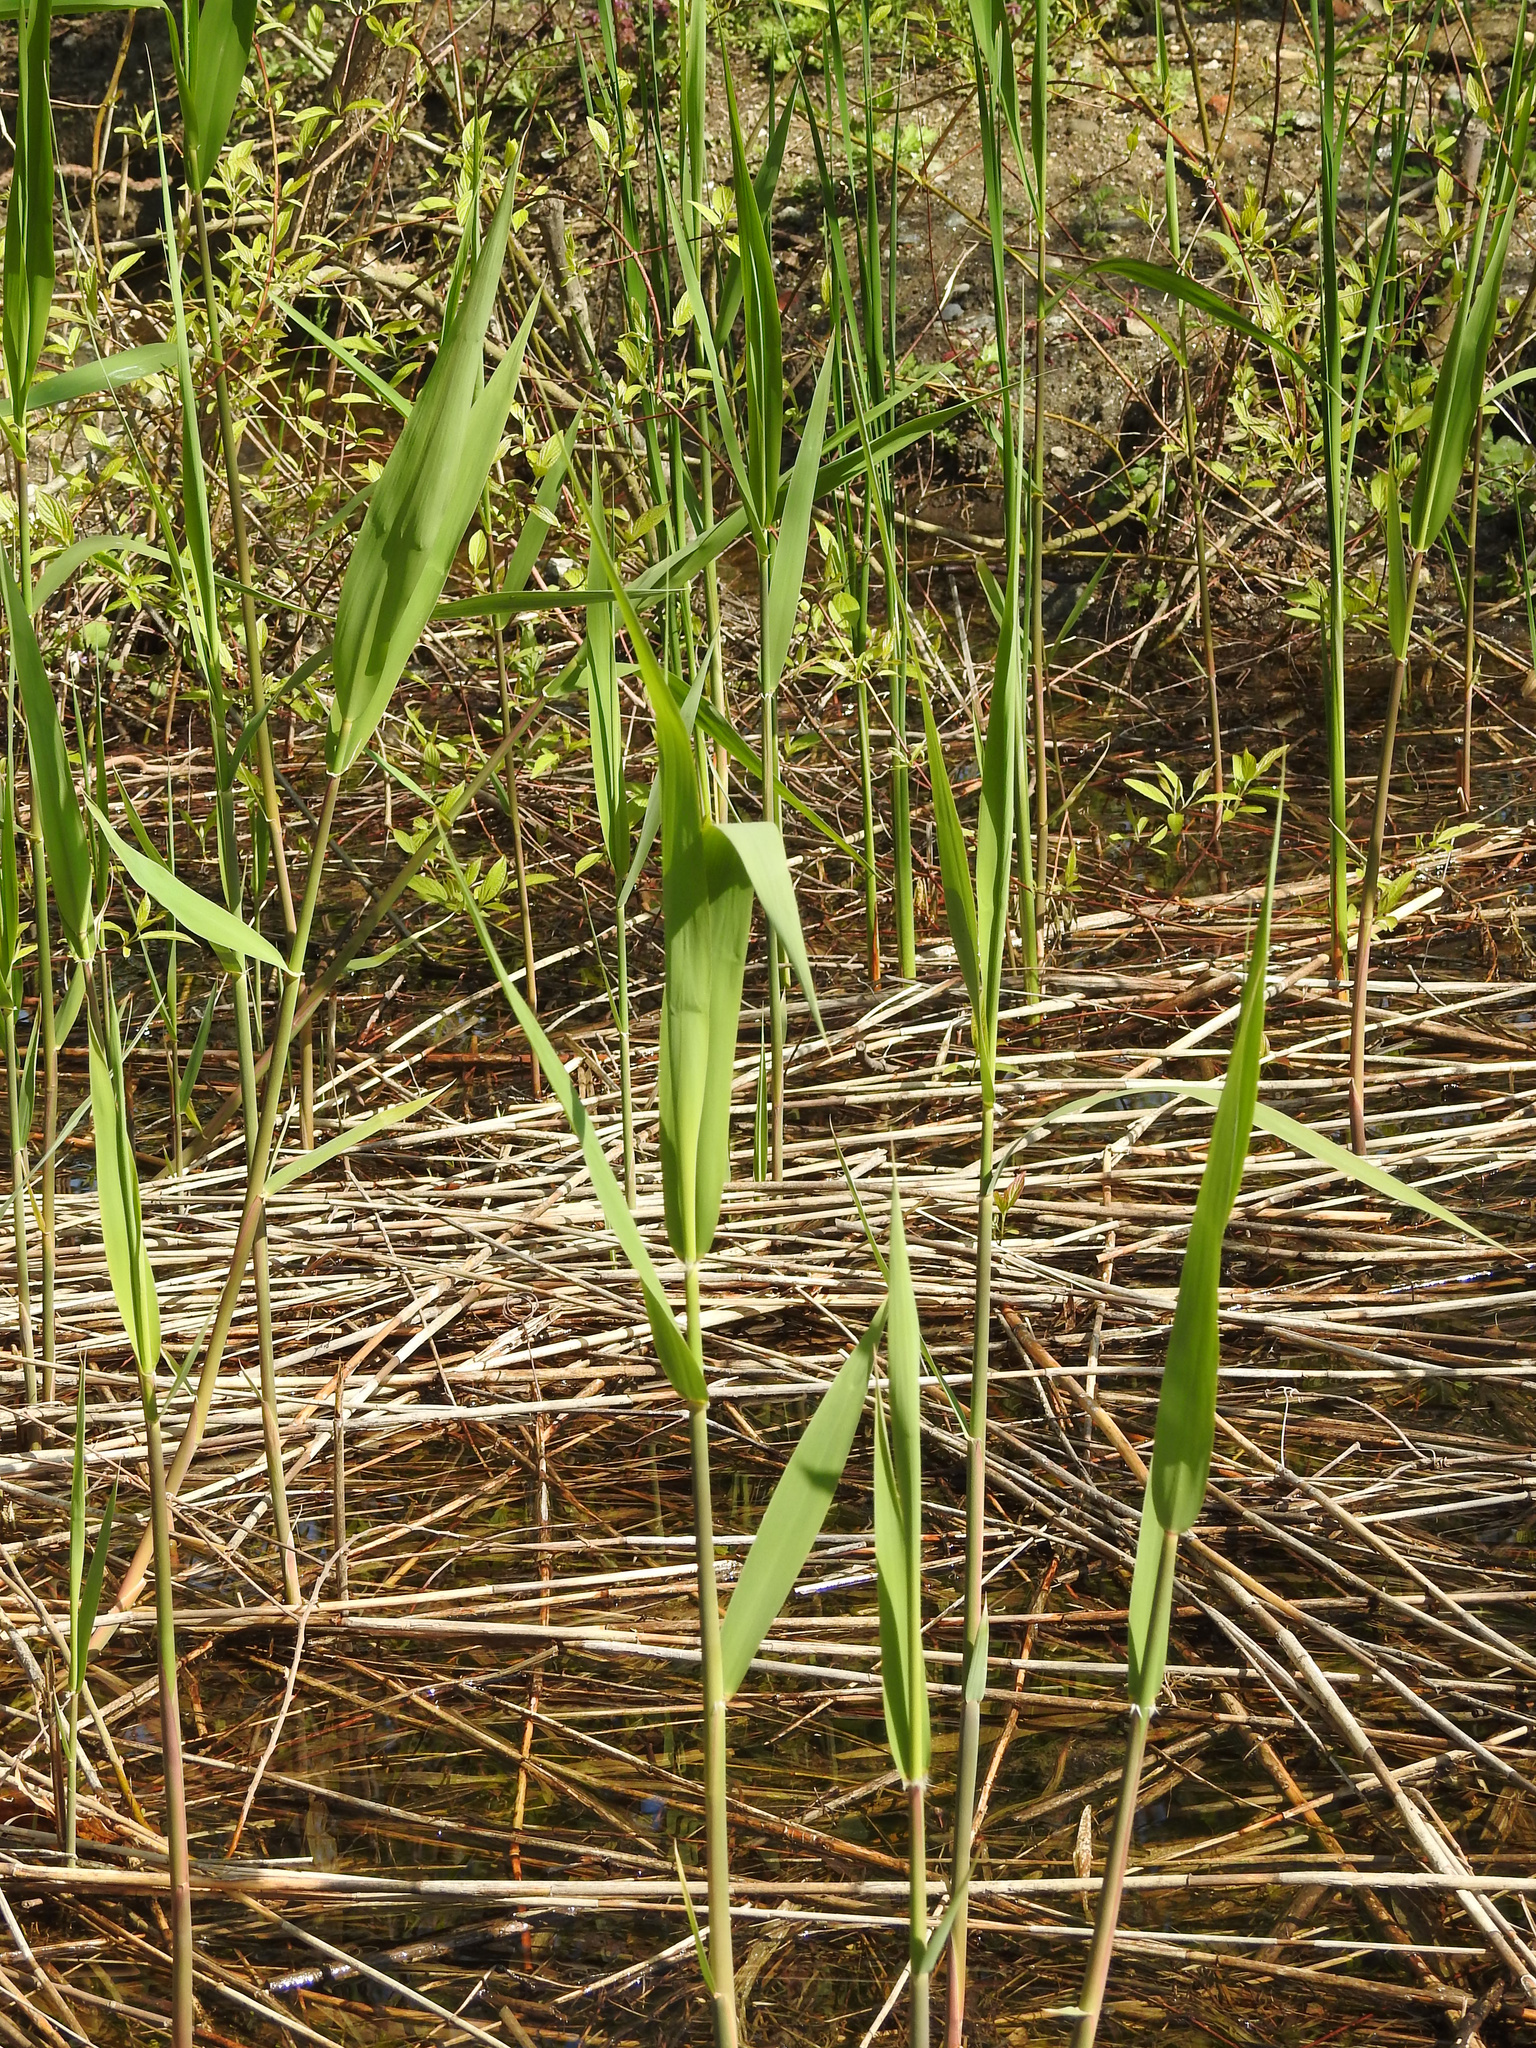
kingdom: Plantae
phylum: Tracheophyta
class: Liliopsida
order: Poales
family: Poaceae
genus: Phragmites
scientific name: Phragmites australis
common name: Common reed
